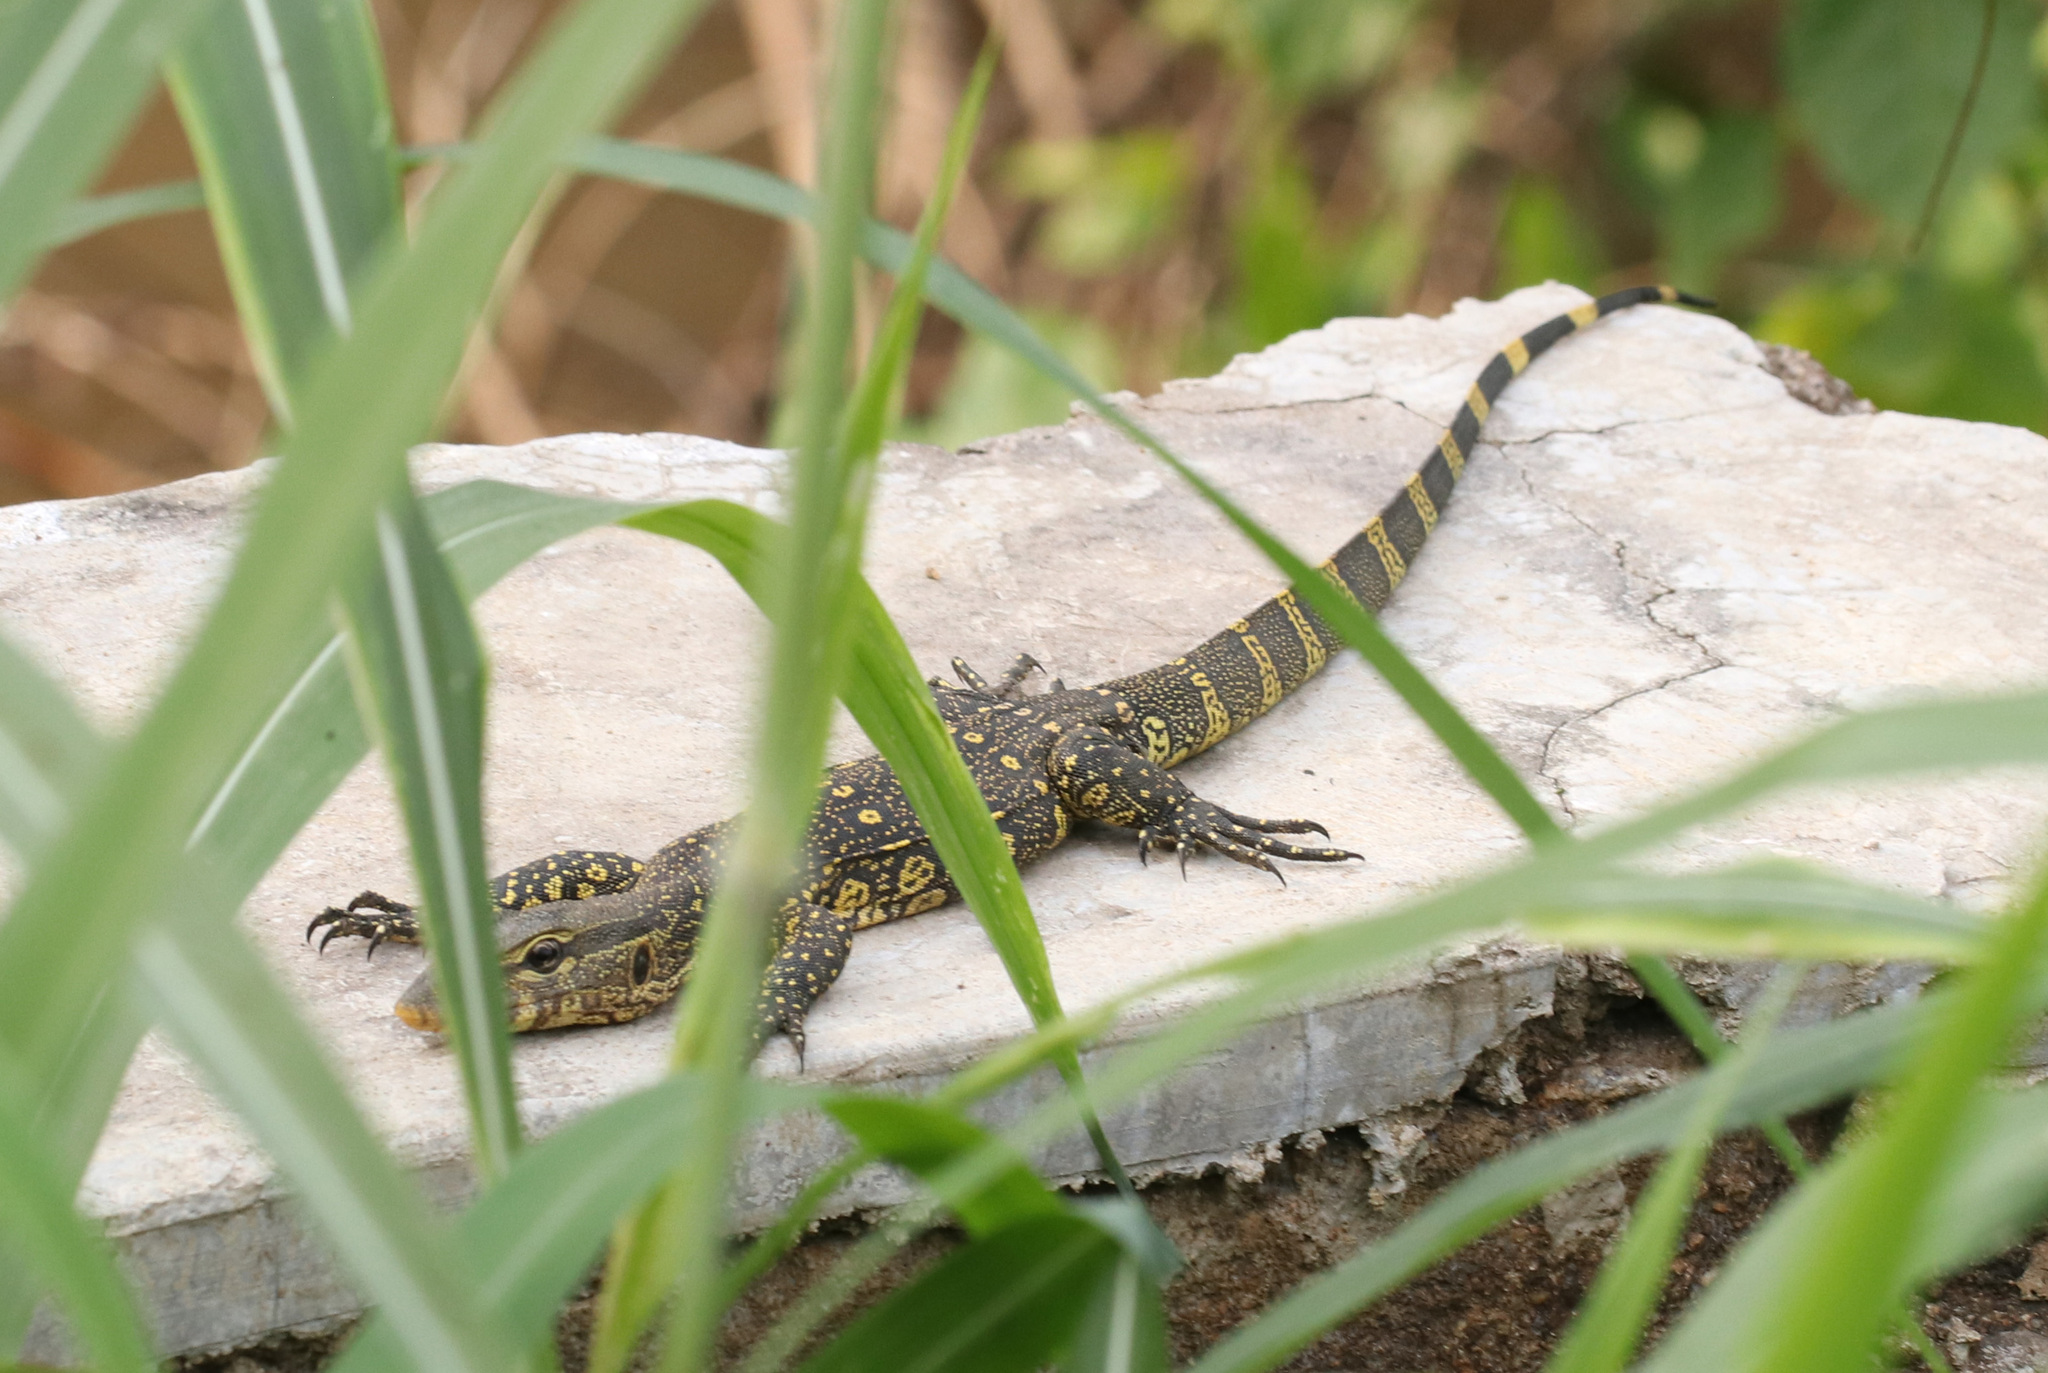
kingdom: Animalia
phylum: Chordata
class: Squamata
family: Varanidae
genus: Varanus
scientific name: Varanus niloticus
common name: Nile monitor
